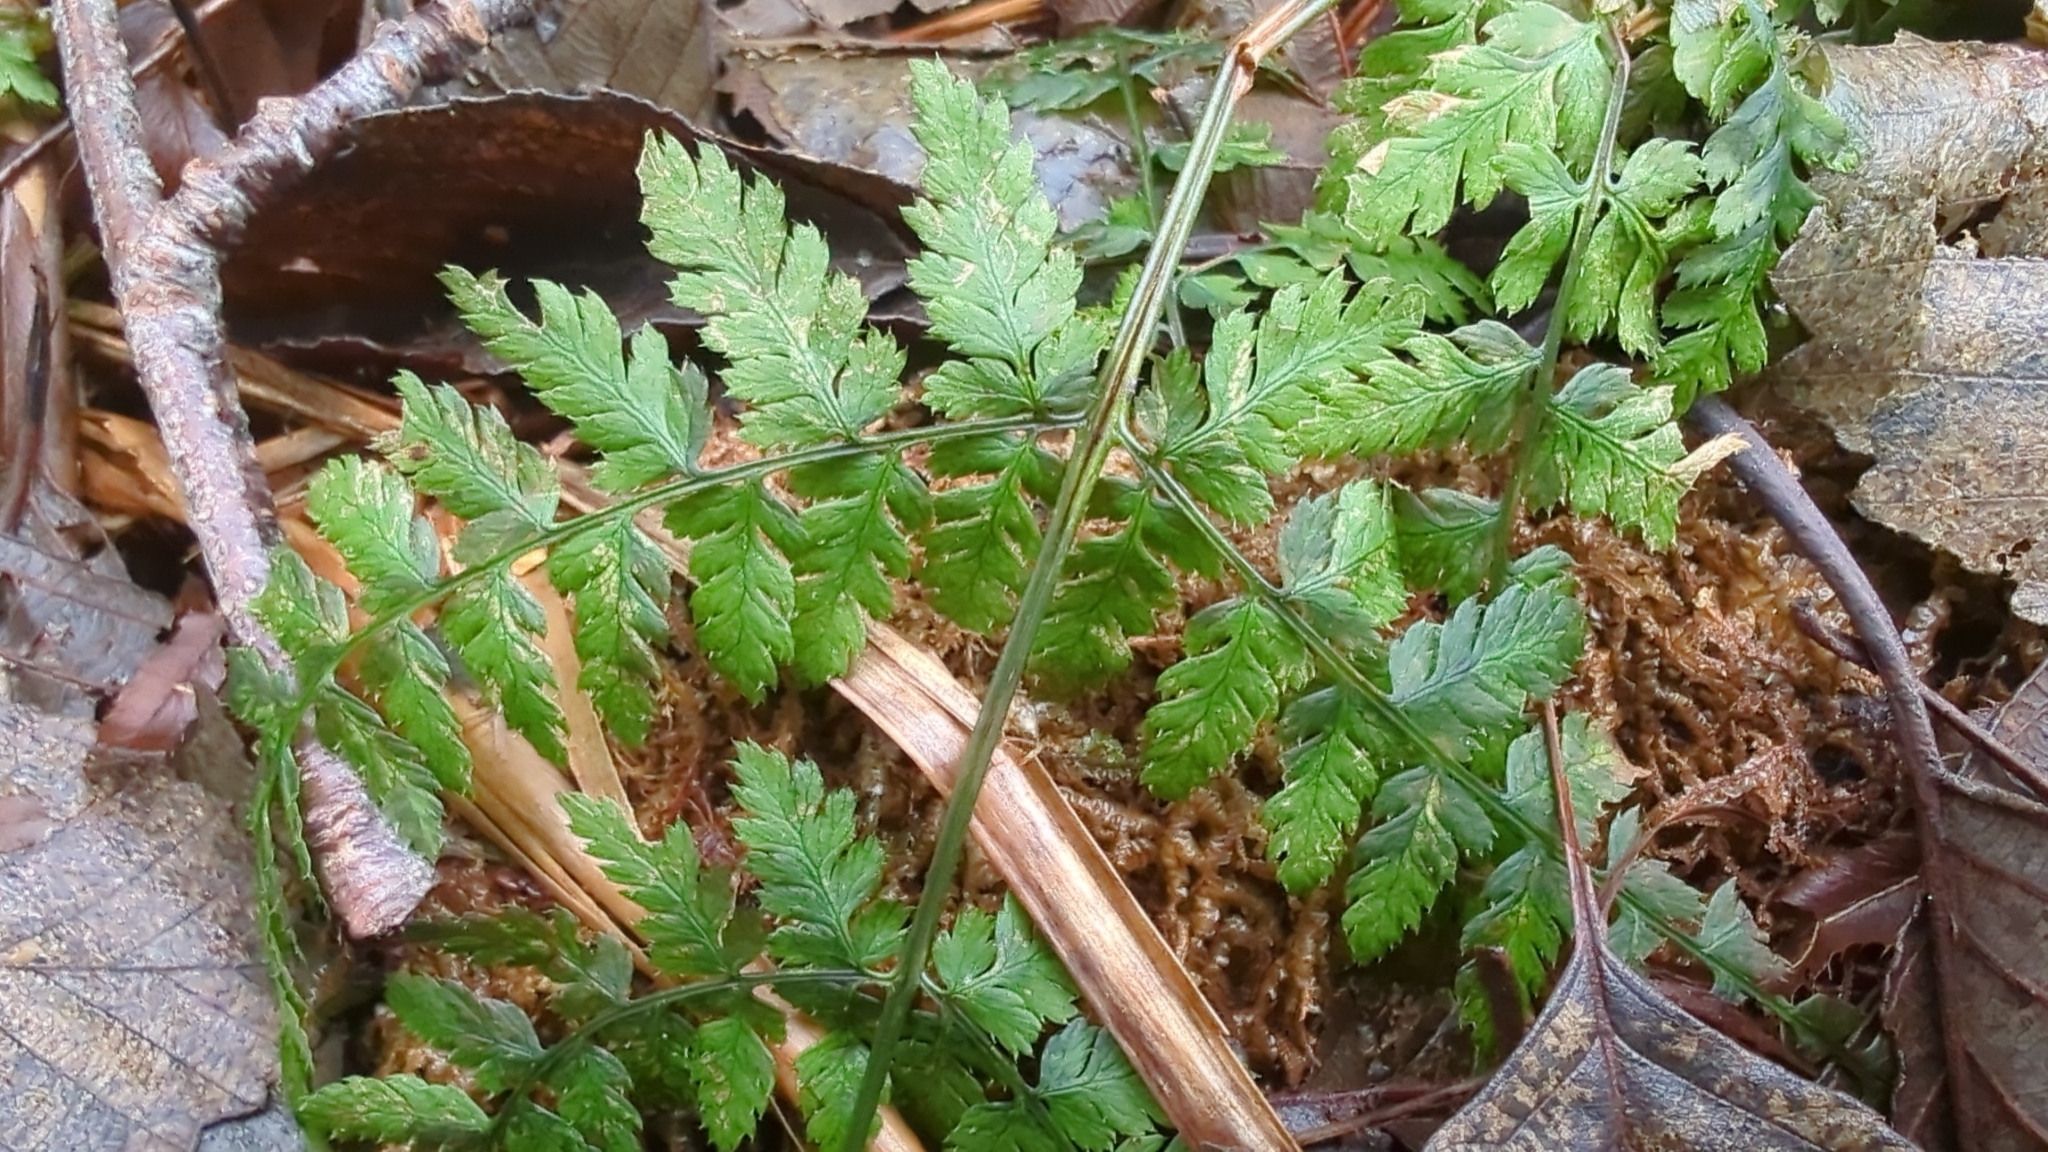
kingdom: Plantae
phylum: Tracheophyta
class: Polypodiopsida
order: Polypodiales
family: Dryopteridaceae
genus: Dryopteris
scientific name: Dryopteris expansa
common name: Northern buckler fern
